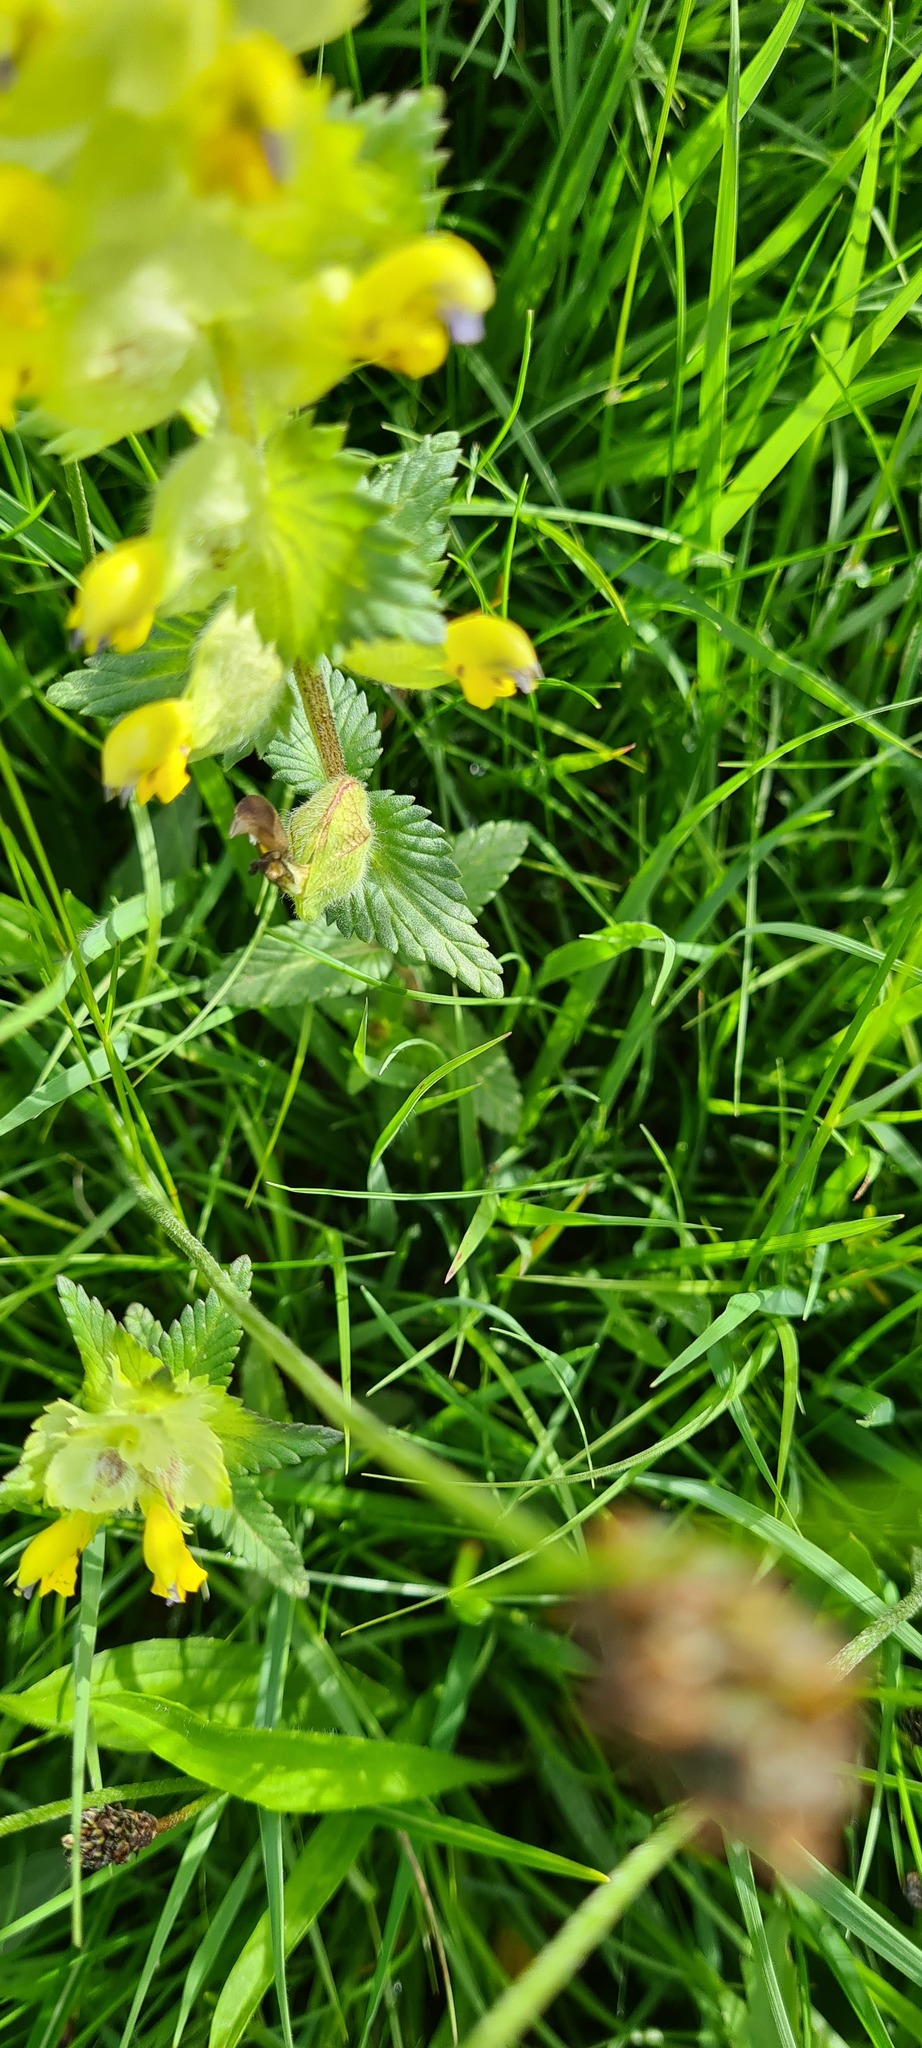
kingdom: Plantae
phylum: Tracheophyta
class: Magnoliopsida
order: Lamiales
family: Orobanchaceae
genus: Rhinanthus
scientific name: Rhinanthus alectorolophus
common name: Greater yellow-rattle
